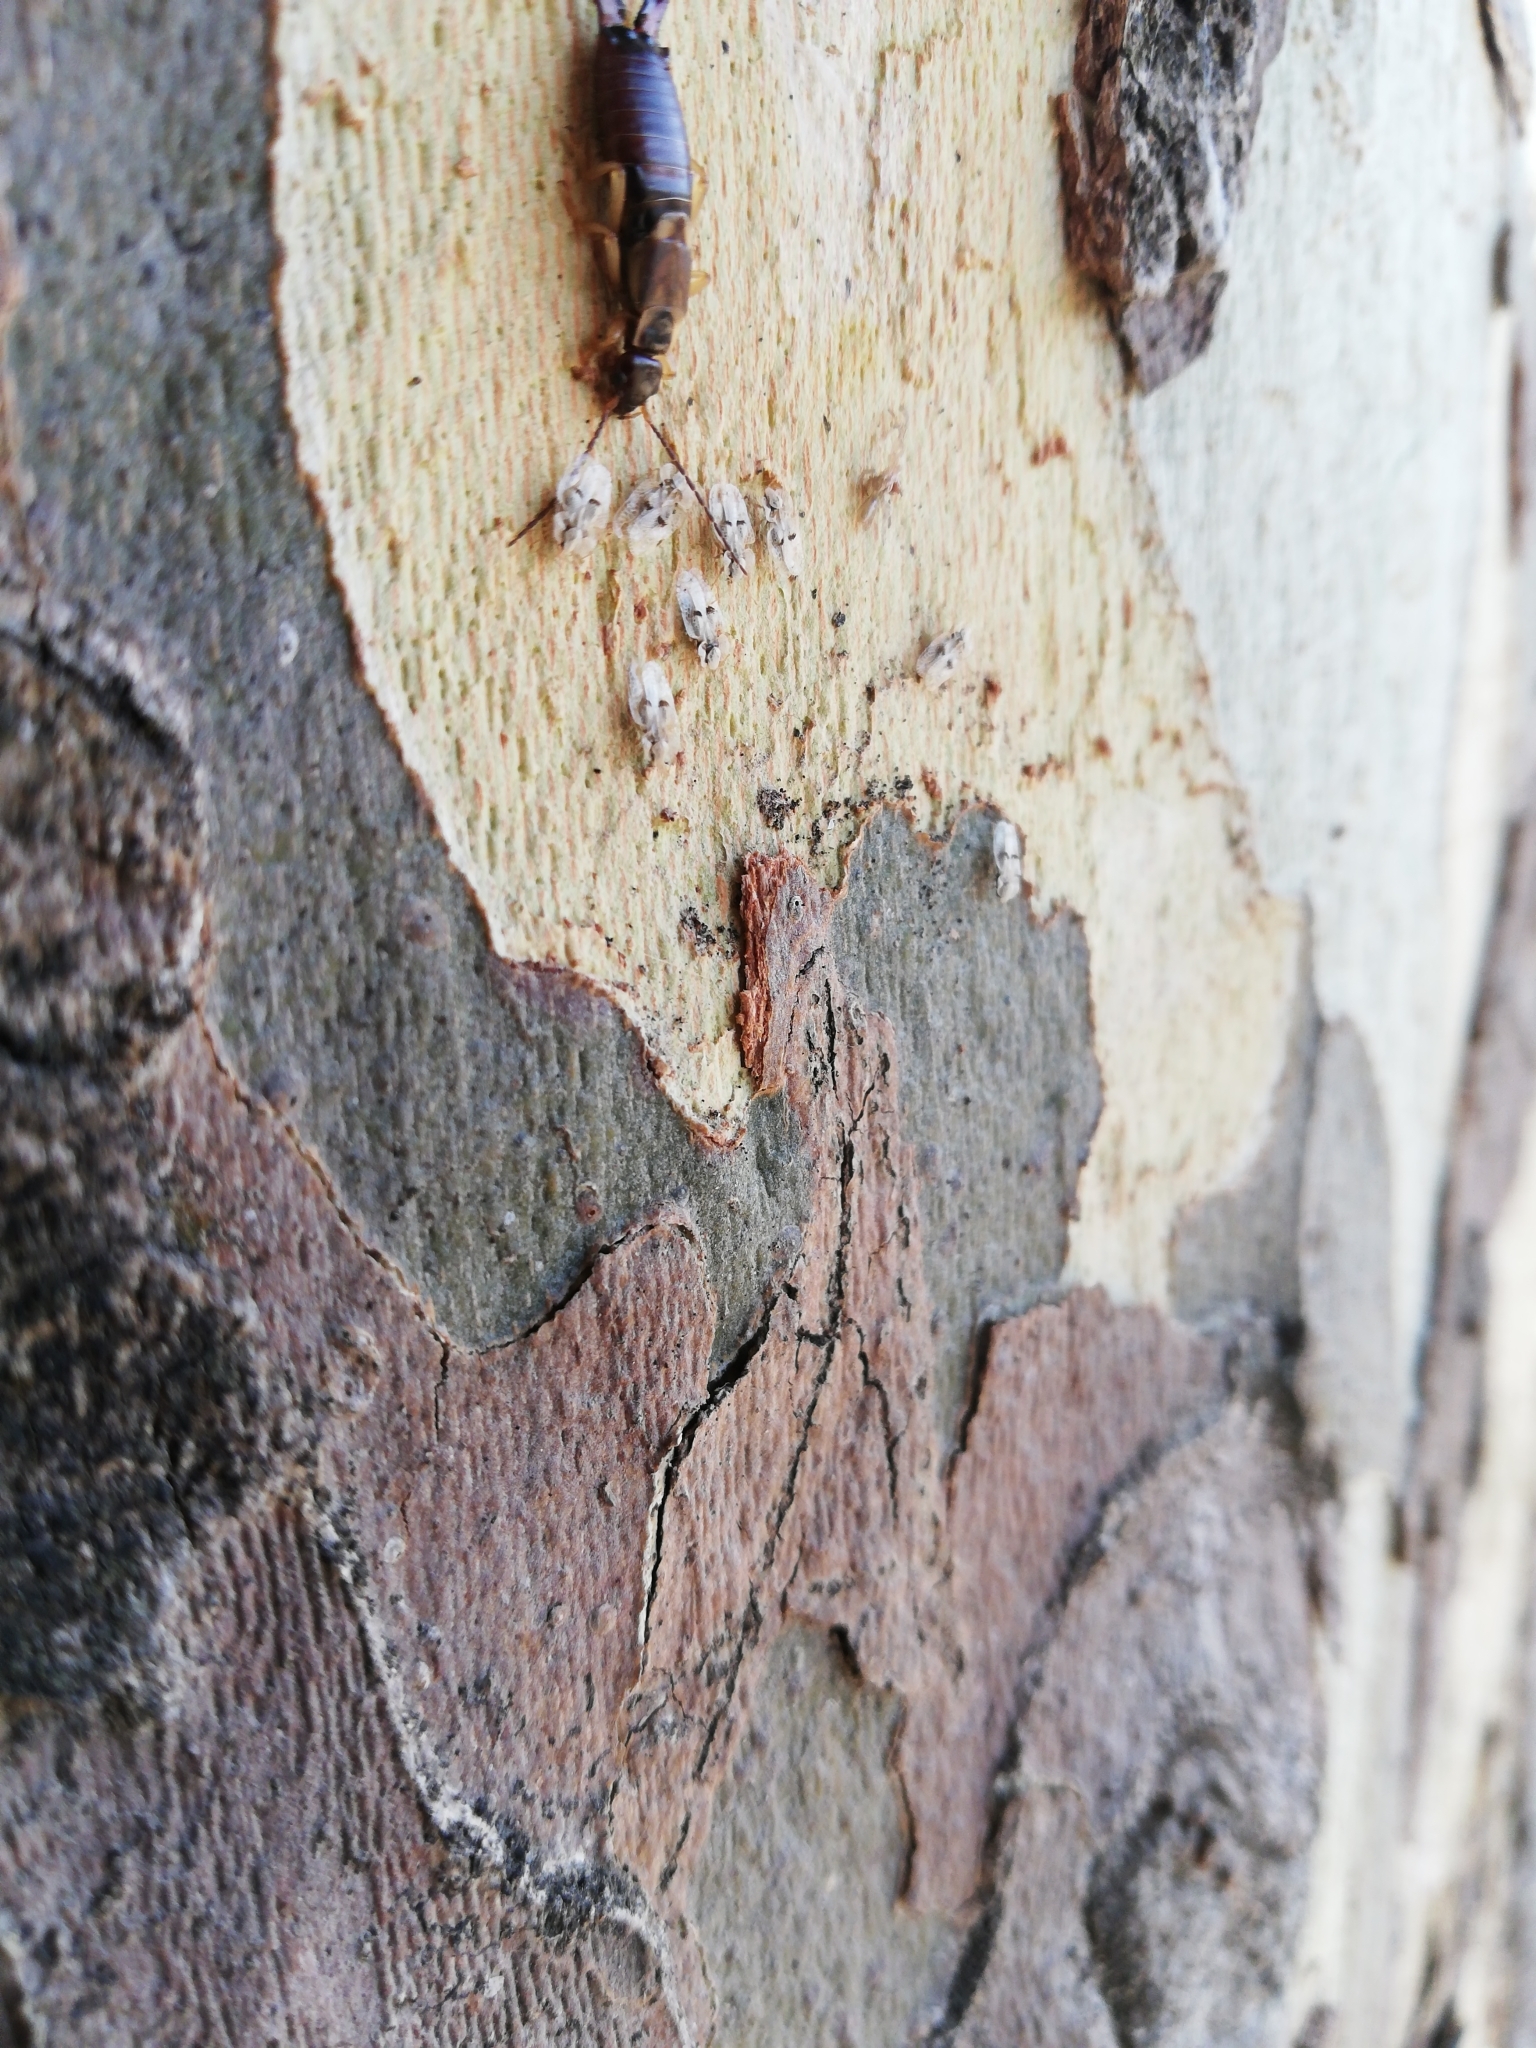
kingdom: Animalia
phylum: Arthropoda
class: Insecta
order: Hemiptera
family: Tingidae
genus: Corythucha
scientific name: Corythucha ciliata
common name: Sycamore lace bug
